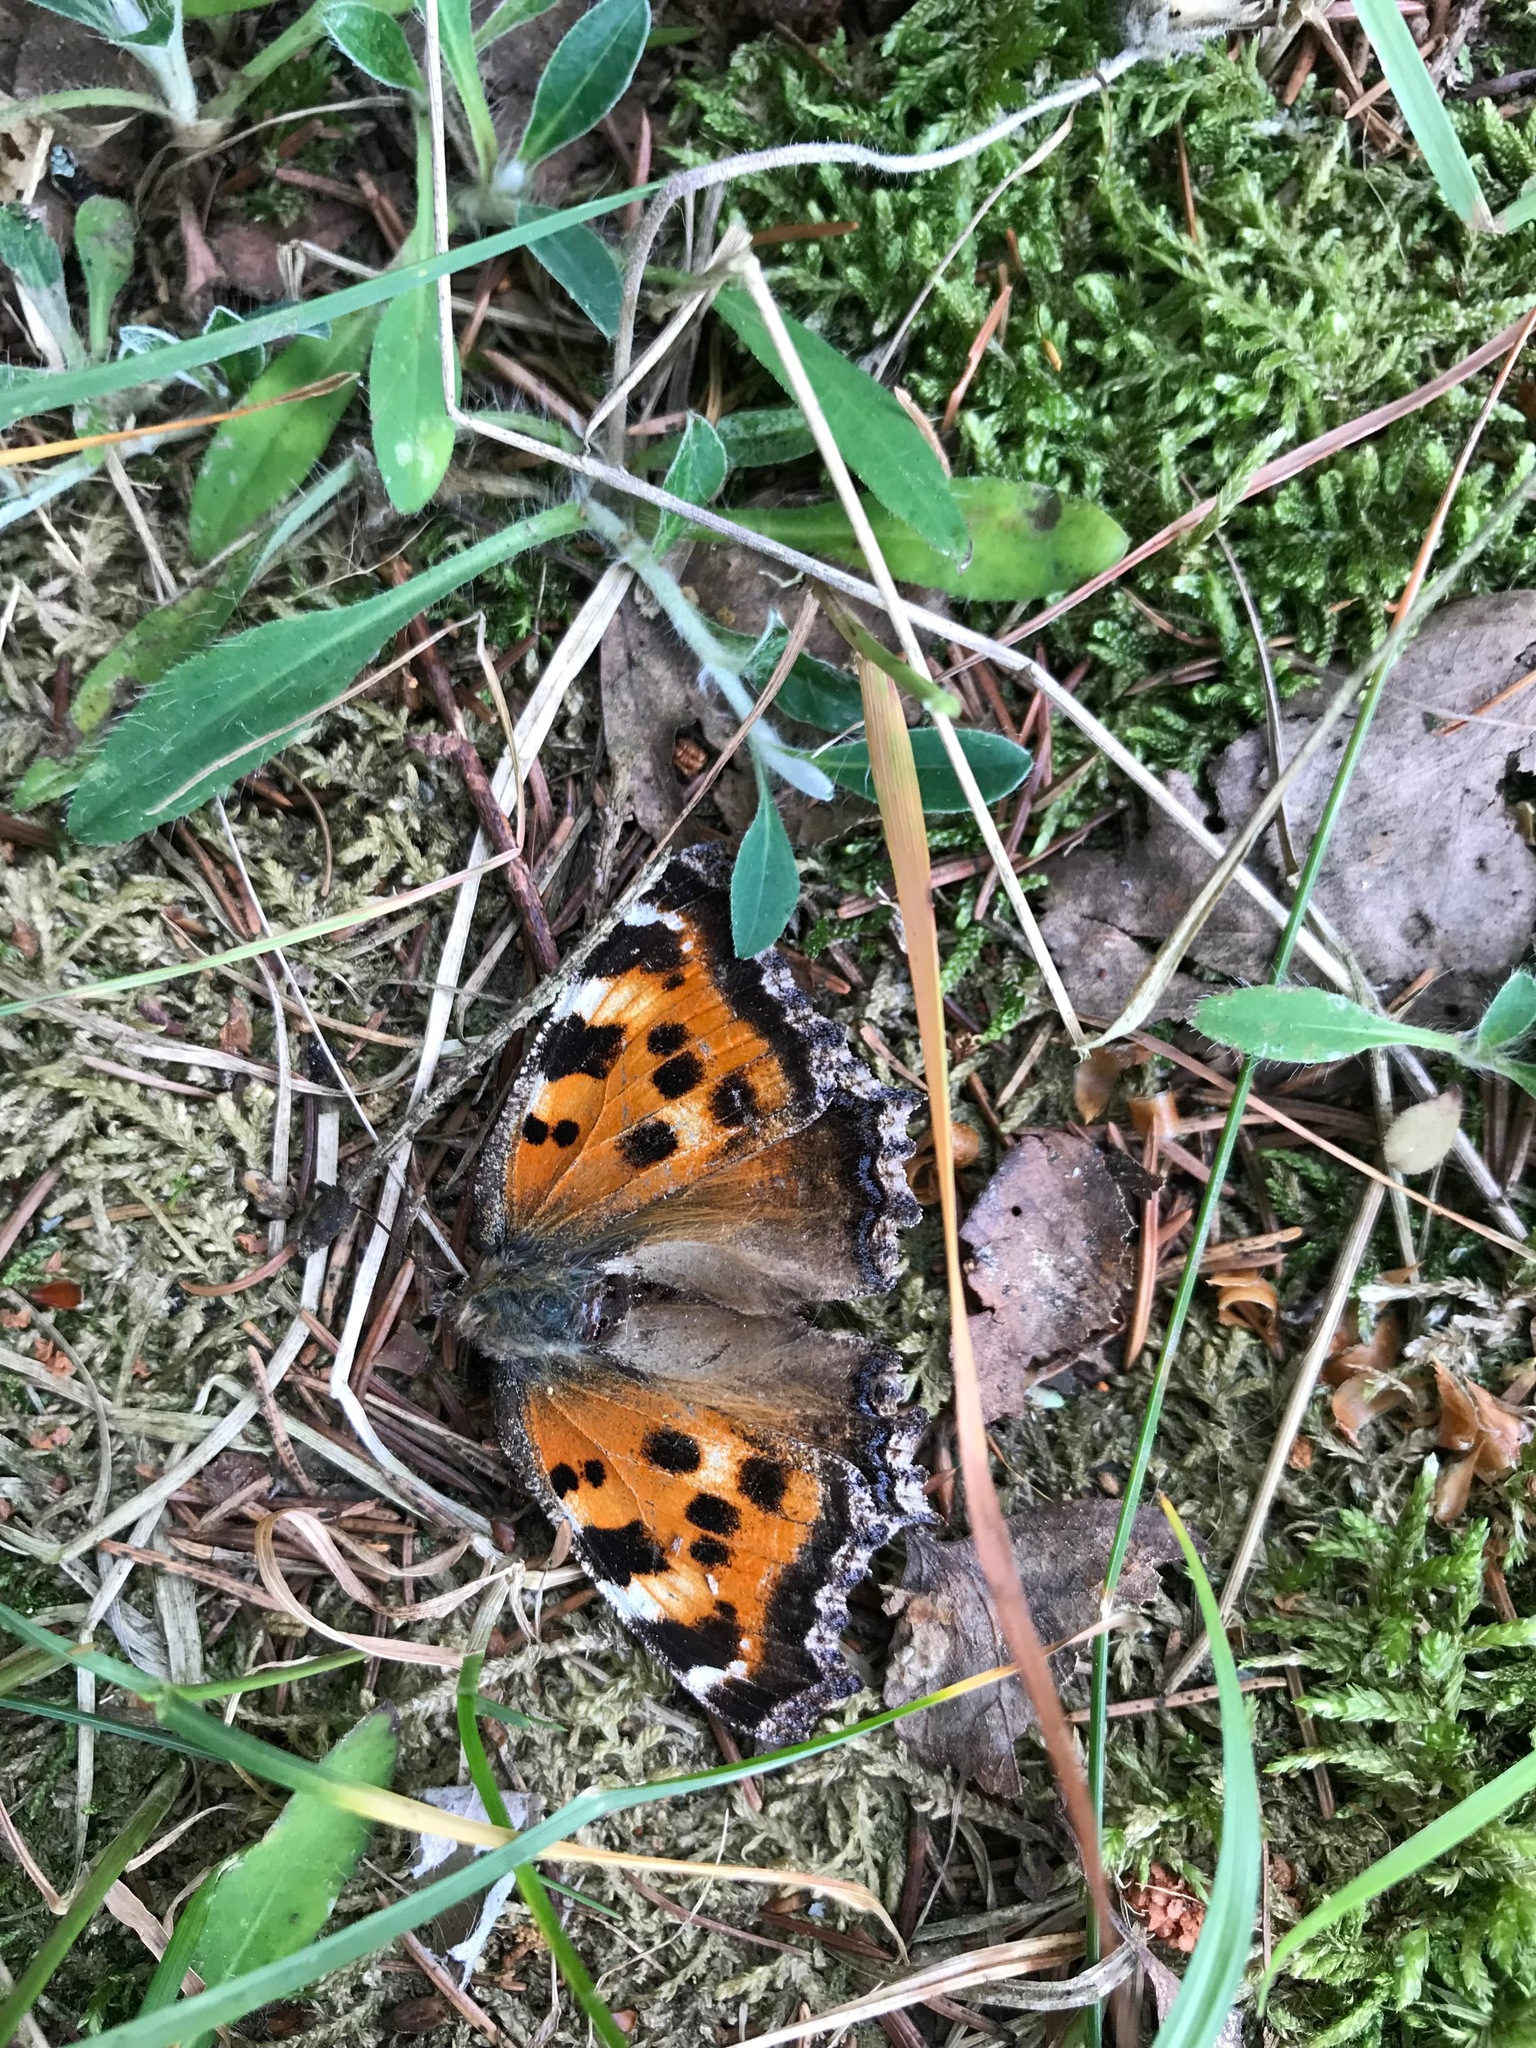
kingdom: Animalia
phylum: Arthropoda
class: Insecta
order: Lepidoptera
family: Nymphalidae
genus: Nymphalis
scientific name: Nymphalis xanthomelas
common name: Scarce tortoiseshell
